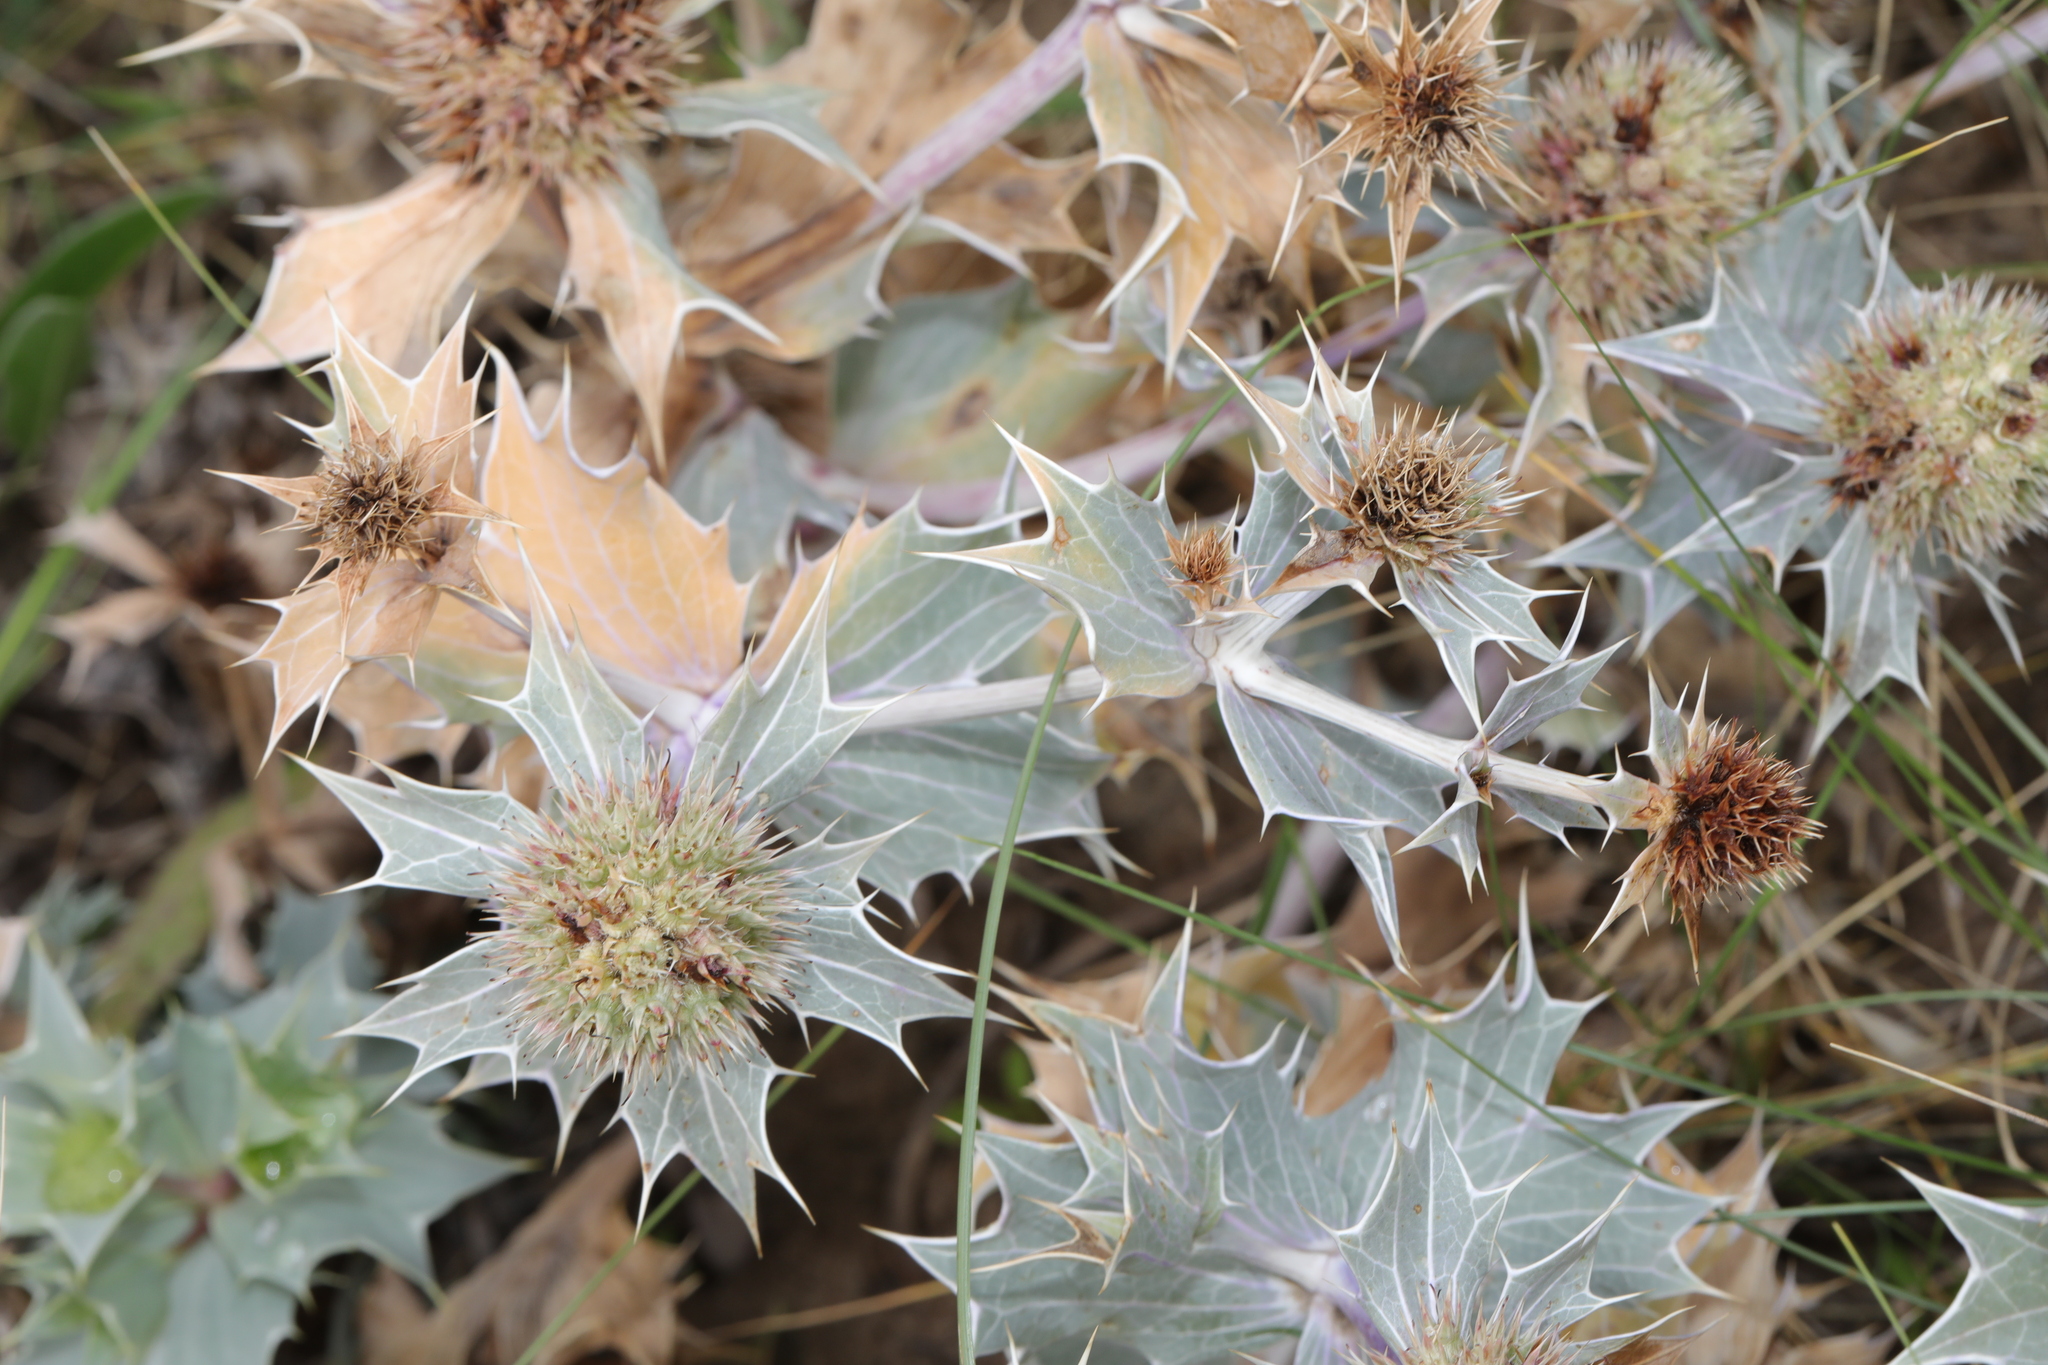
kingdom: Plantae
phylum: Tracheophyta
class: Magnoliopsida
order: Apiales
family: Apiaceae
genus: Eryngium
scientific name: Eryngium maritimum
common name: Sea-holly
